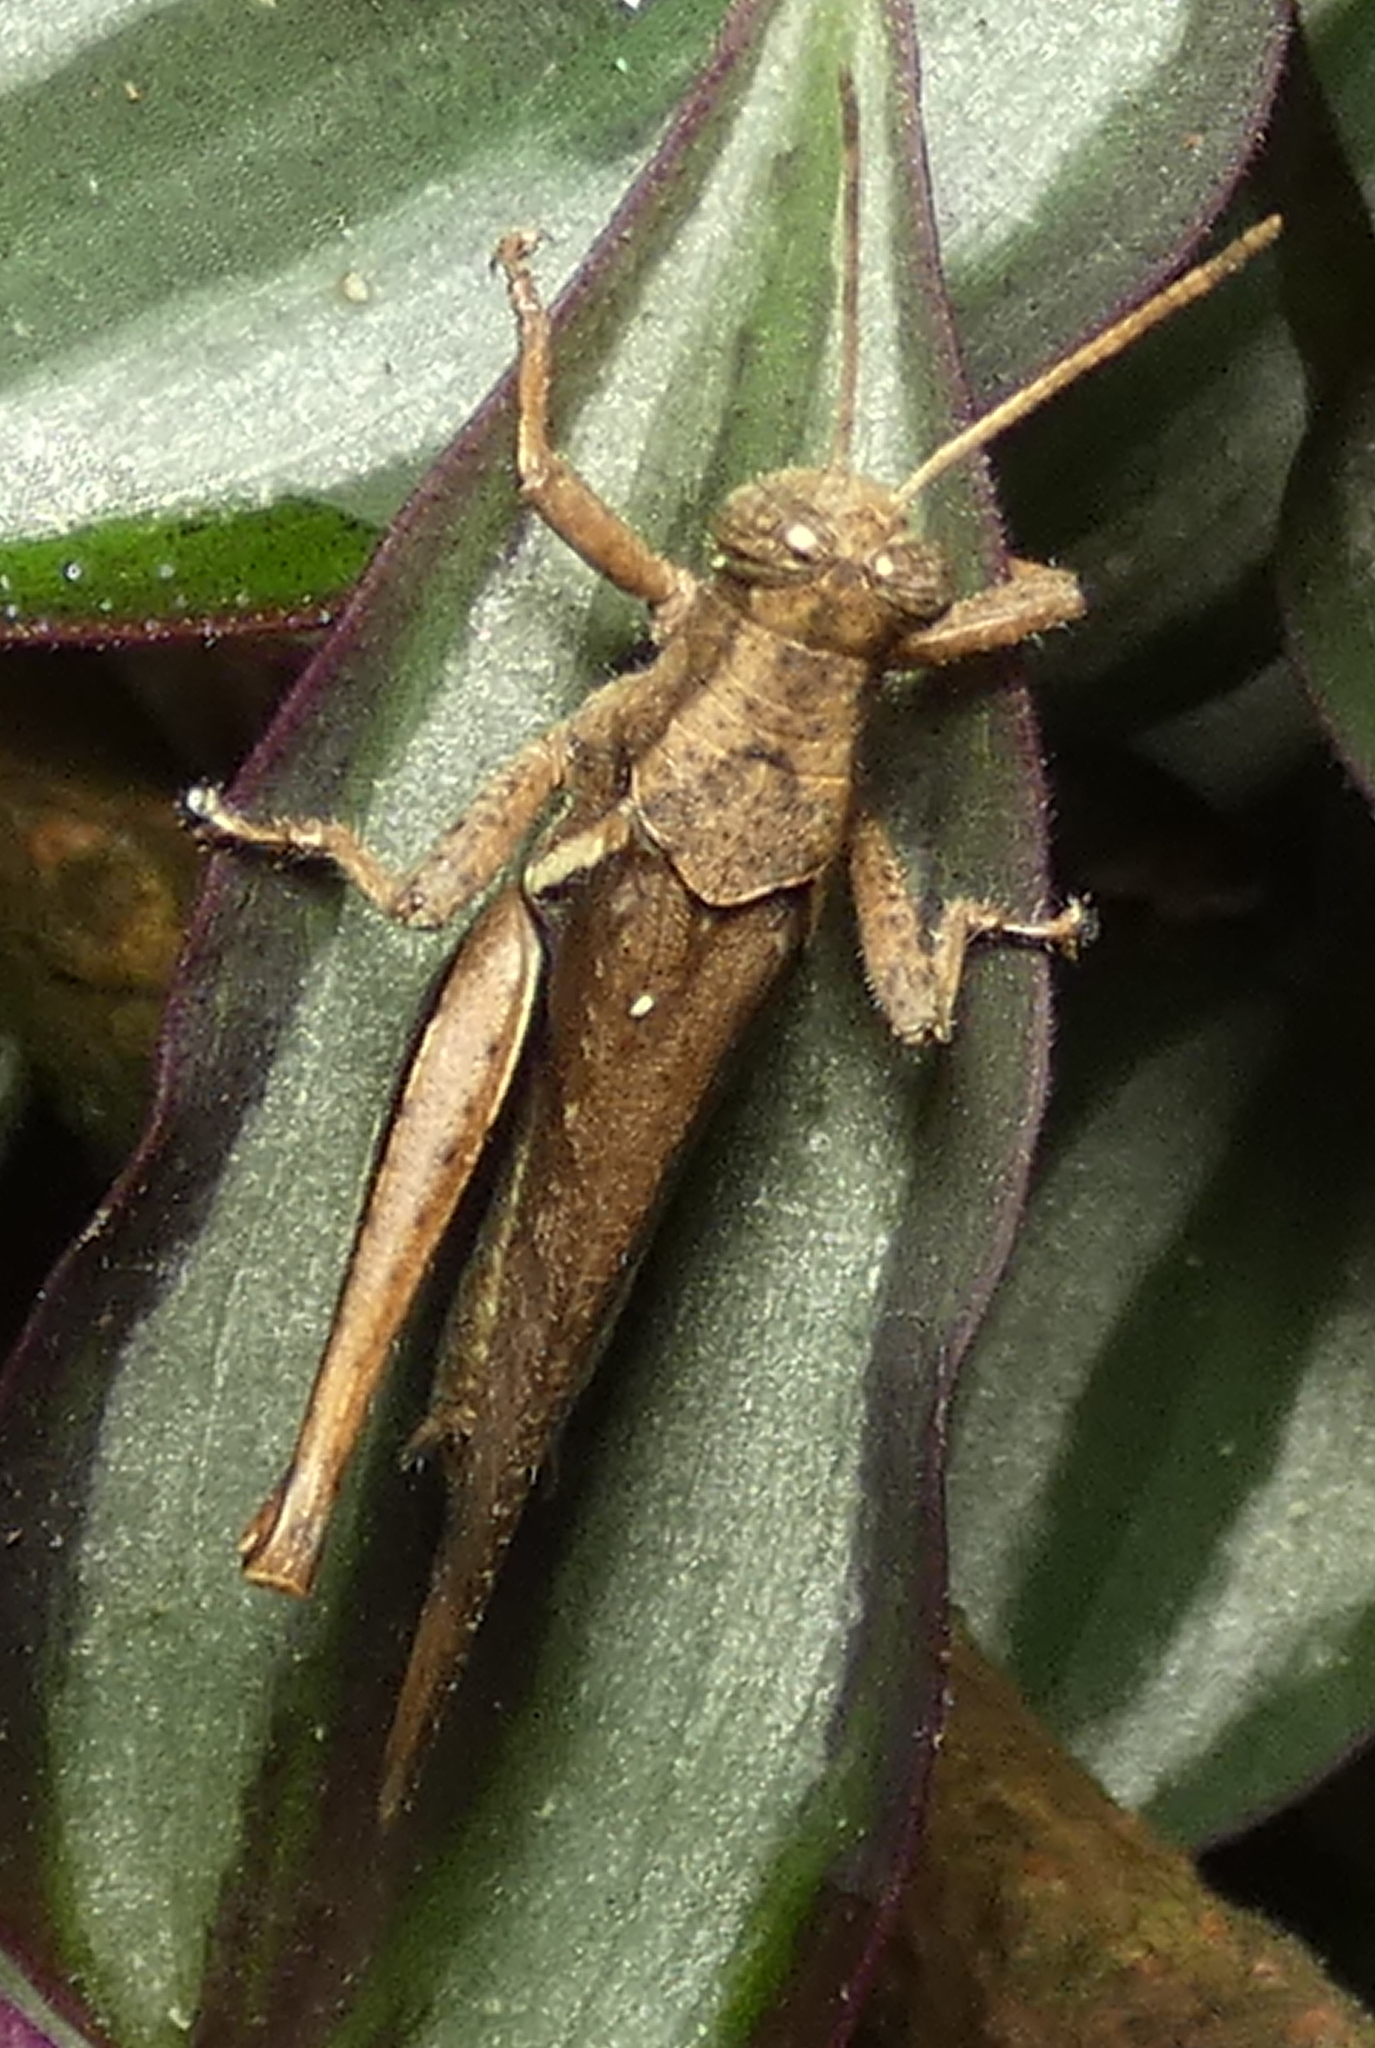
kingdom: Animalia
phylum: Arthropoda
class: Insecta
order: Orthoptera
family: Acrididae
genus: Abracris
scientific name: Abracris flavolineata
